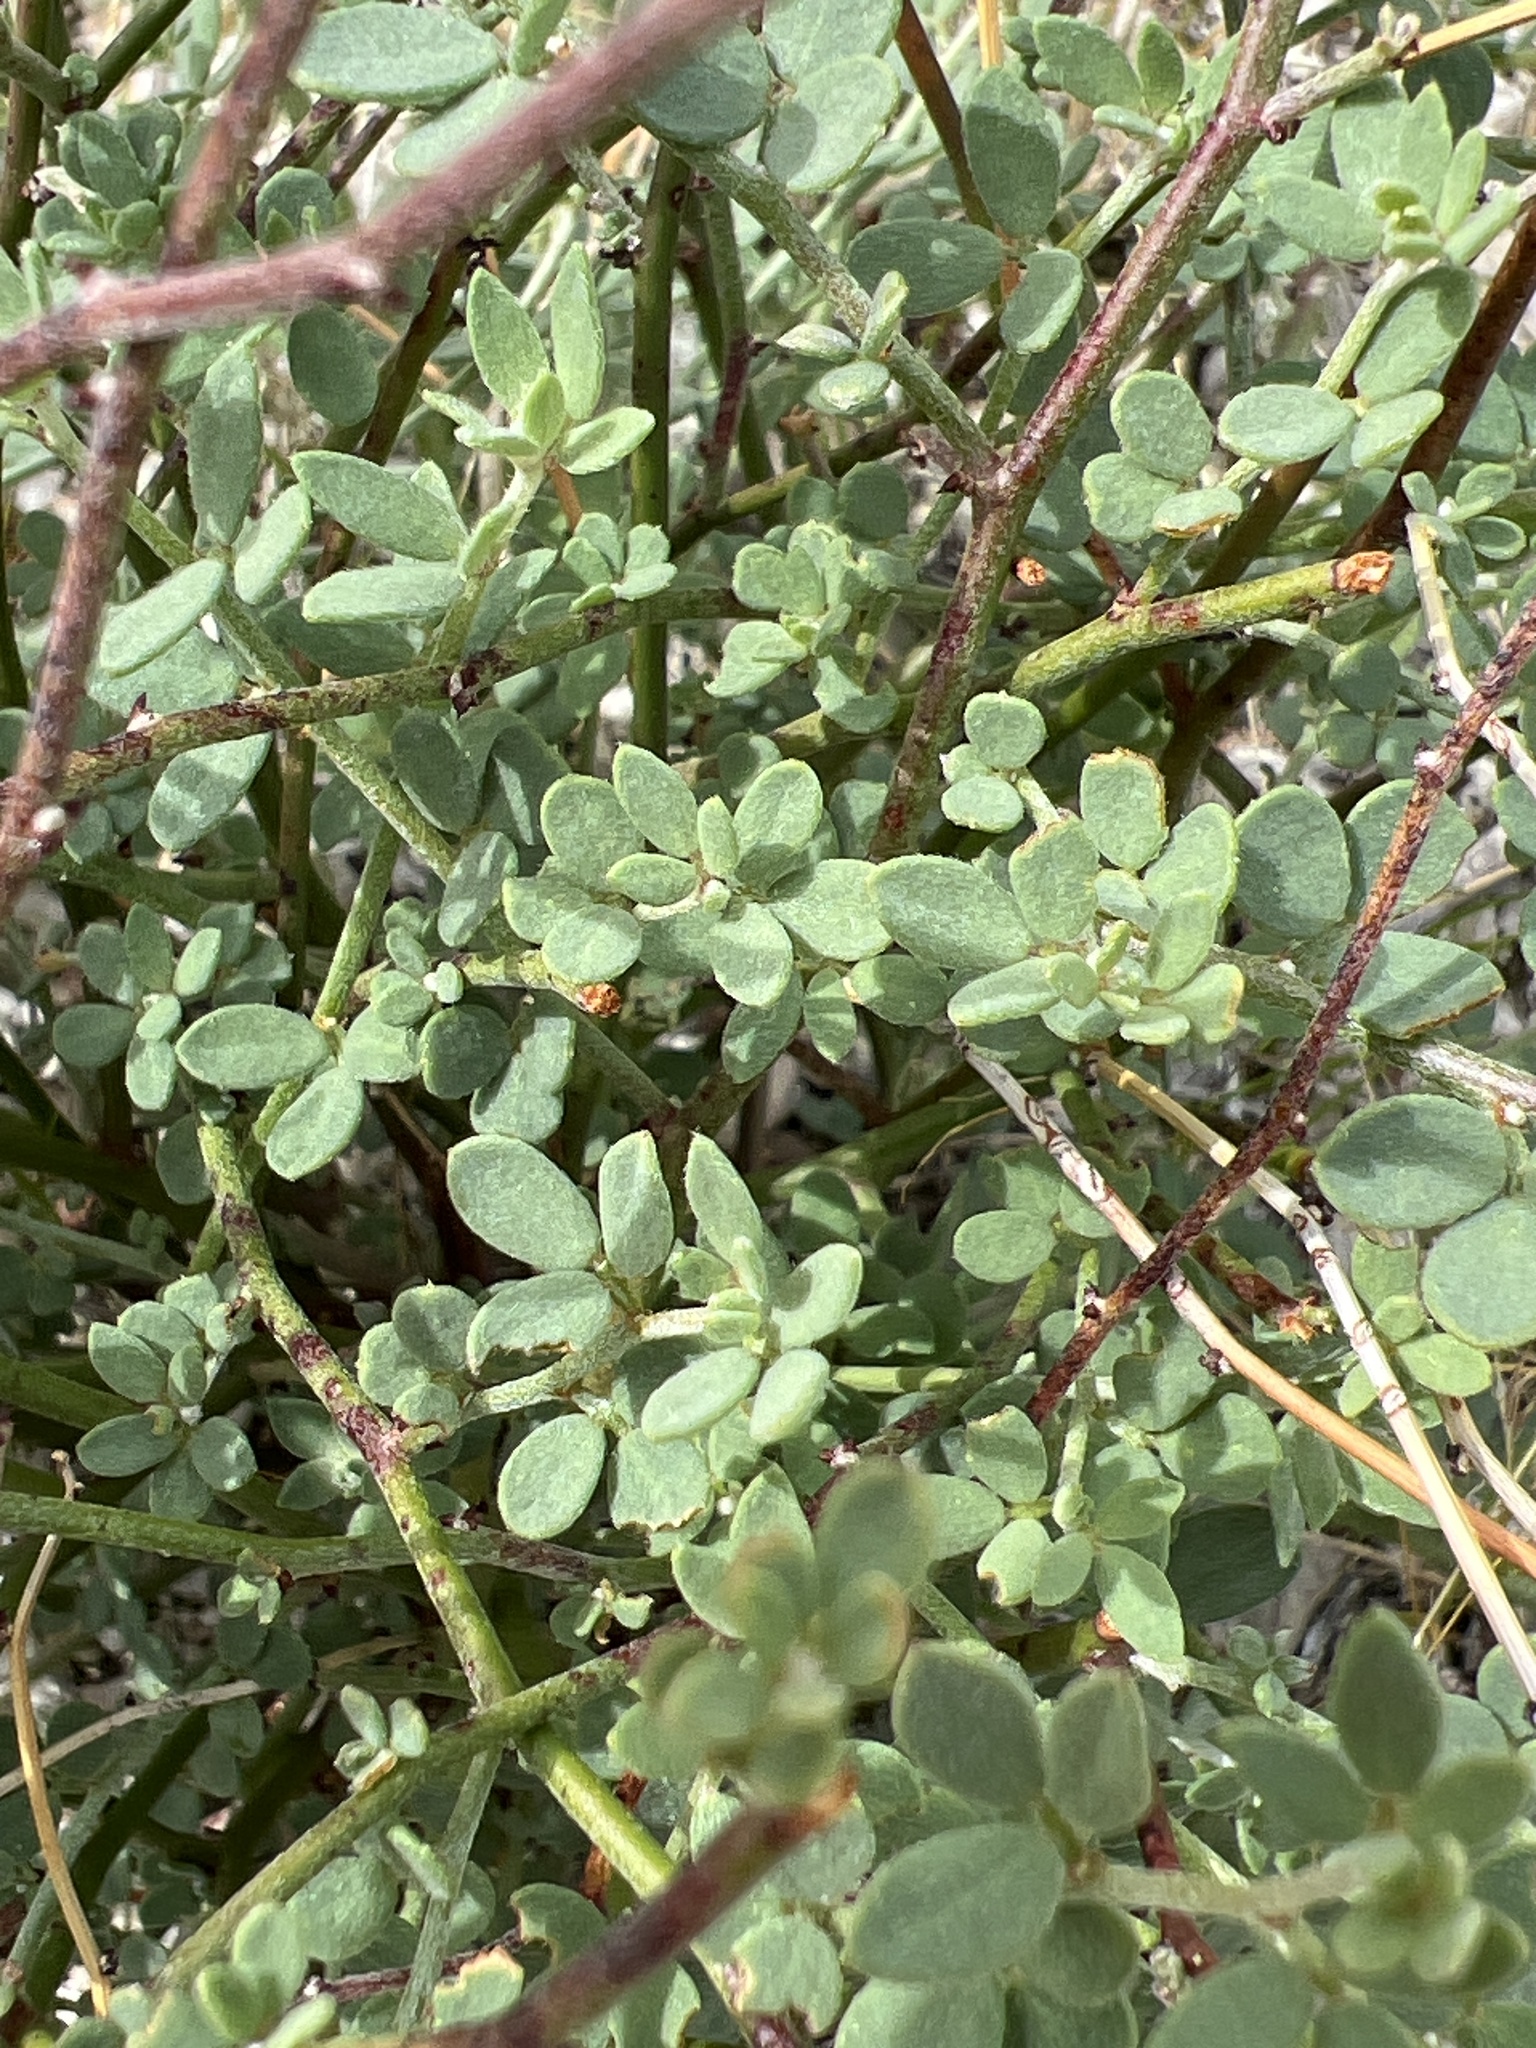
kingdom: Plantae
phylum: Tracheophyta
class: Magnoliopsida
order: Fabales
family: Fabaceae
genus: Acmispon
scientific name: Acmispon glaber
